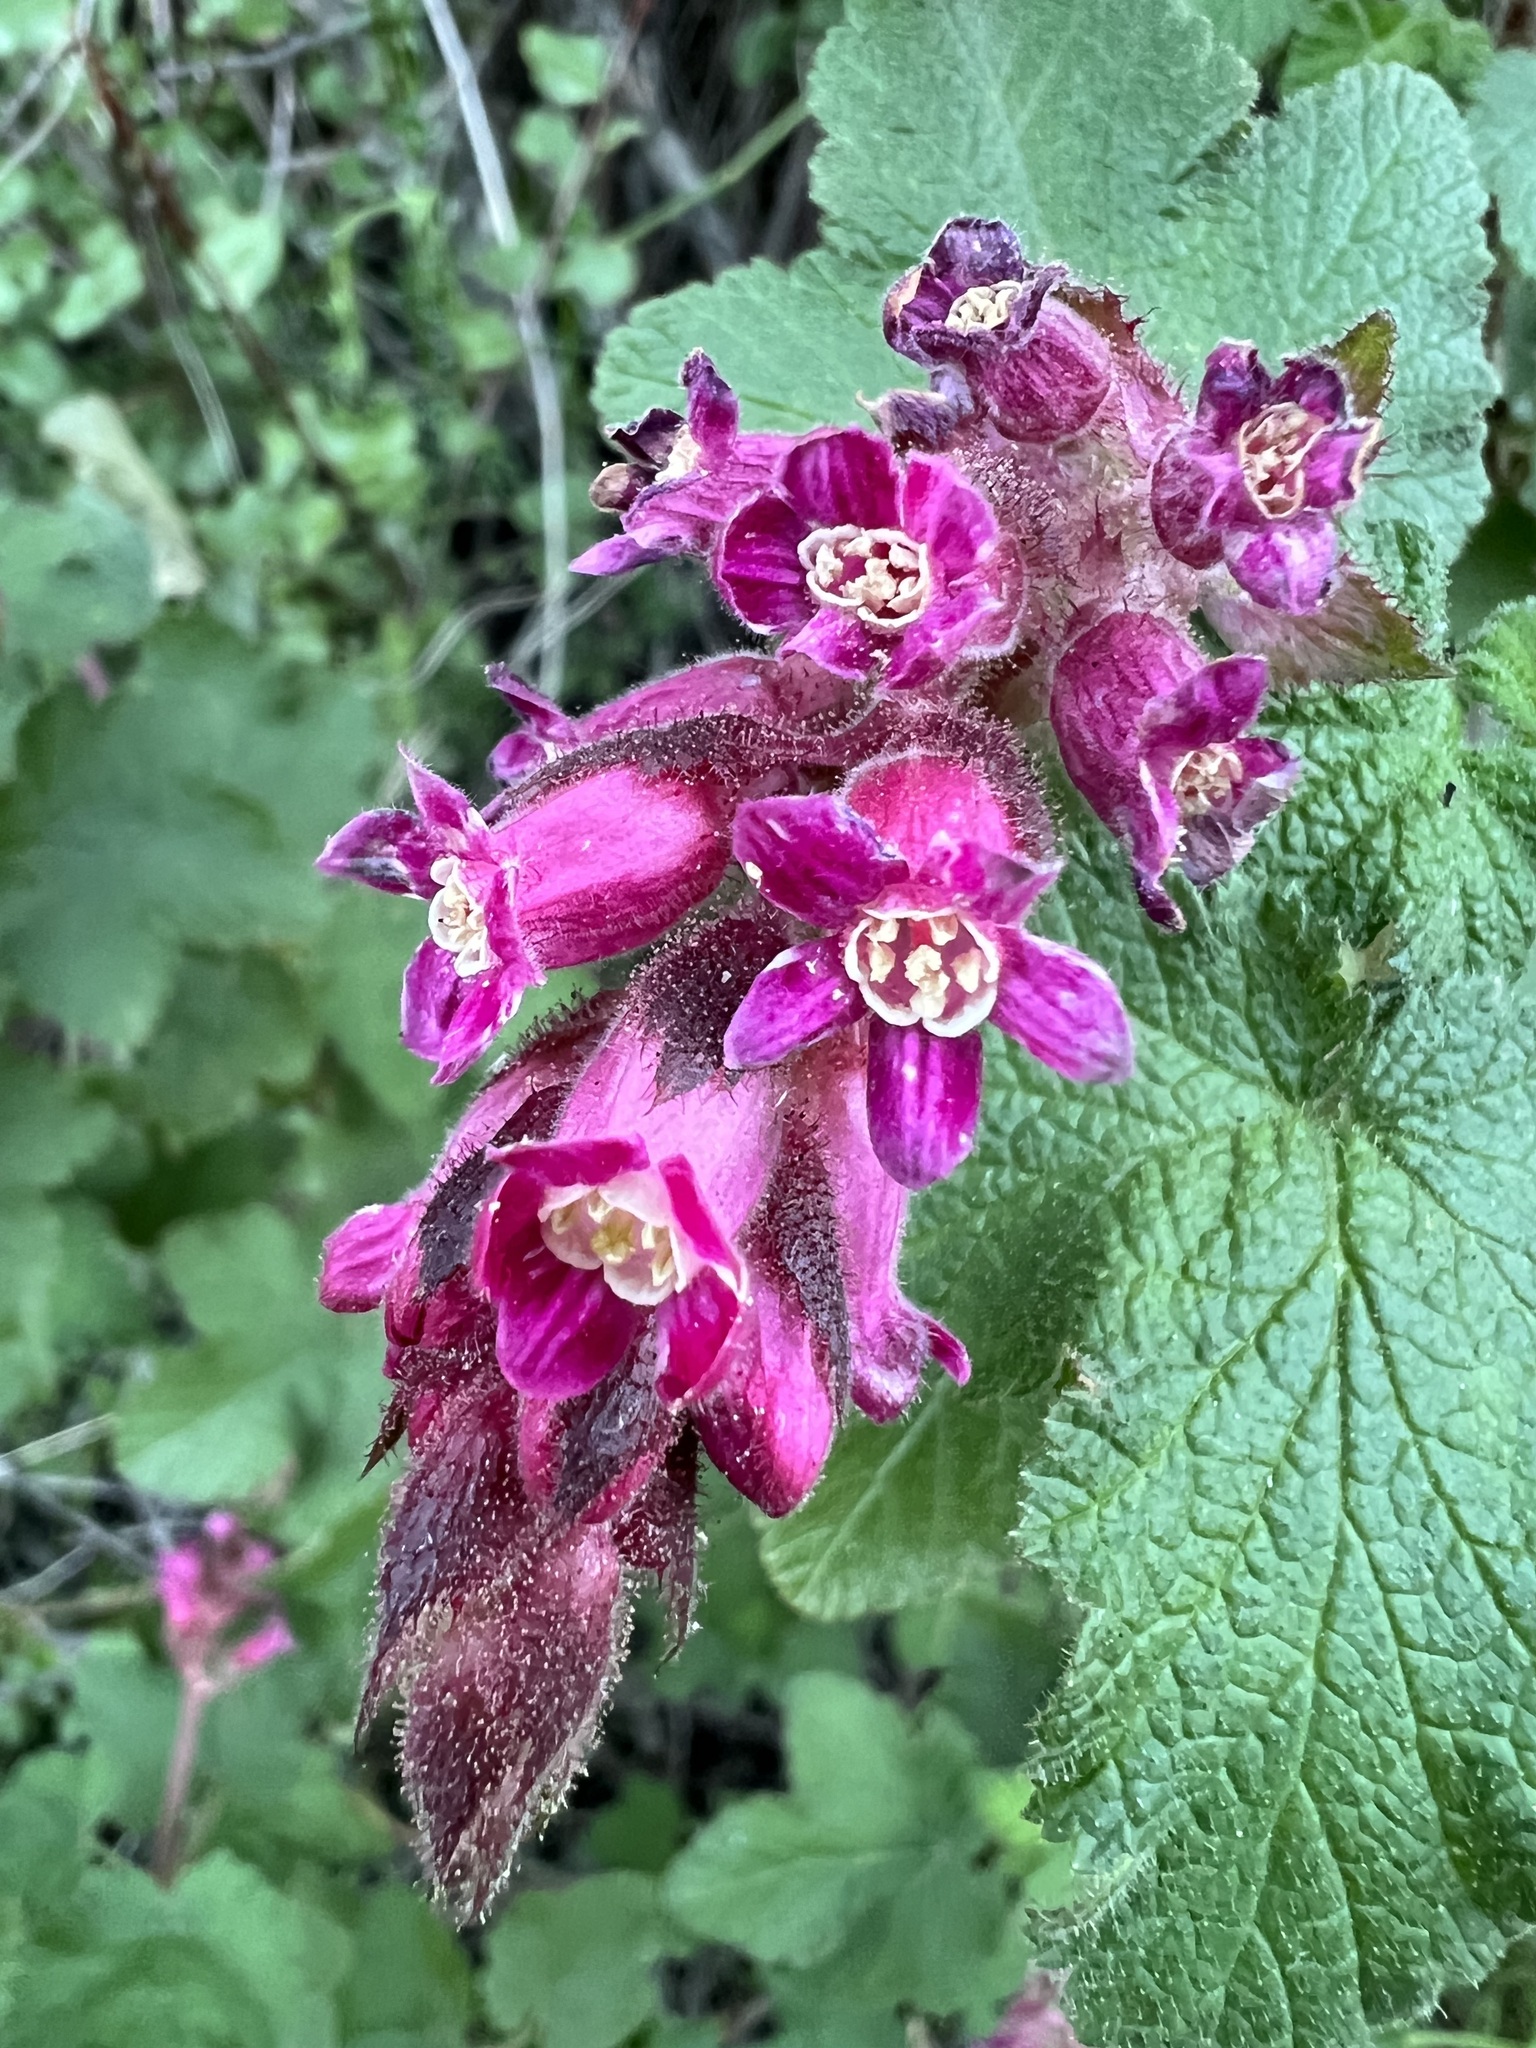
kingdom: Plantae
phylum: Tracheophyta
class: Magnoliopsida
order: Saxifragales
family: Grossulariaceae
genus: Ribes
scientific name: Ribes malvaceum
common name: Chaparral currant
